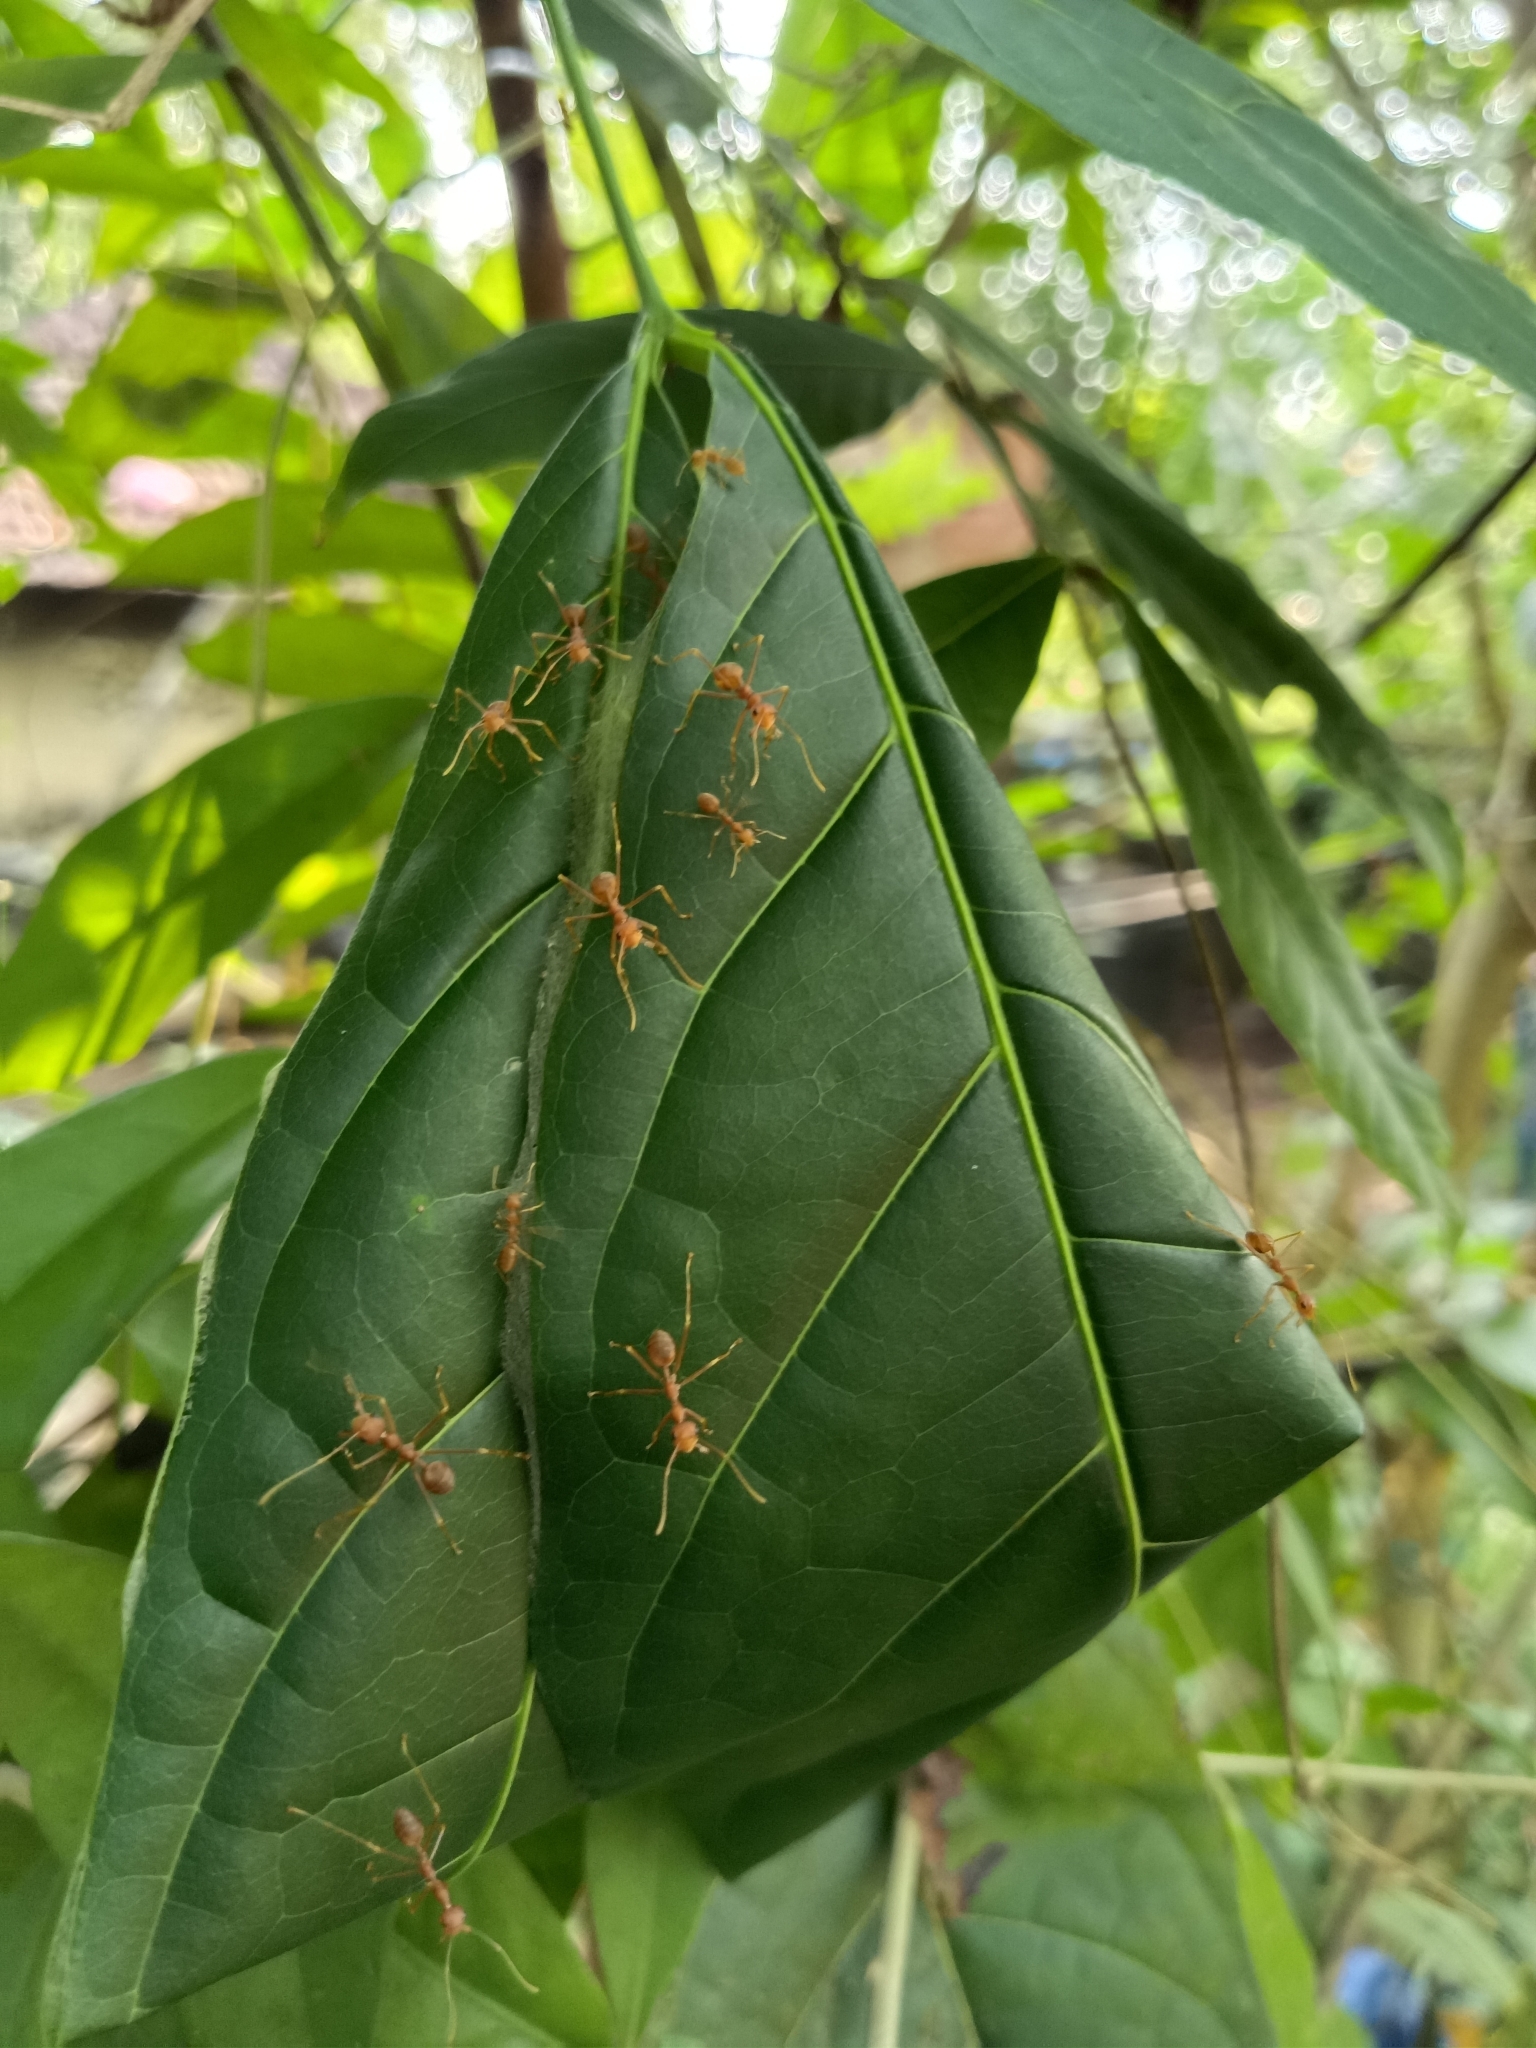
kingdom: Animalia
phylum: Arthropoda
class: Insecta
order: Hymenoptera
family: Formicidae
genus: Oecophylla
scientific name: Oecophylla smaragdina
